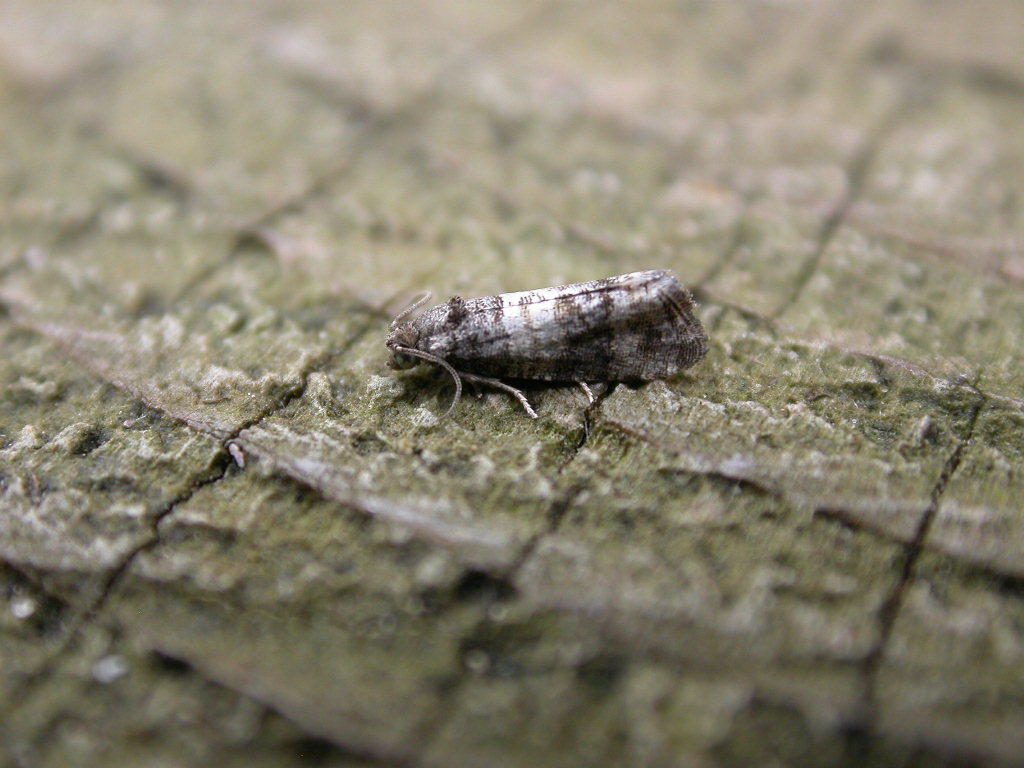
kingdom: Animalia
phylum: Arthropoda
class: Insecta
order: Lepidoptera
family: Tortricidae
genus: Piniphila
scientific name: Piniphila bifasciana
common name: Pine marble
